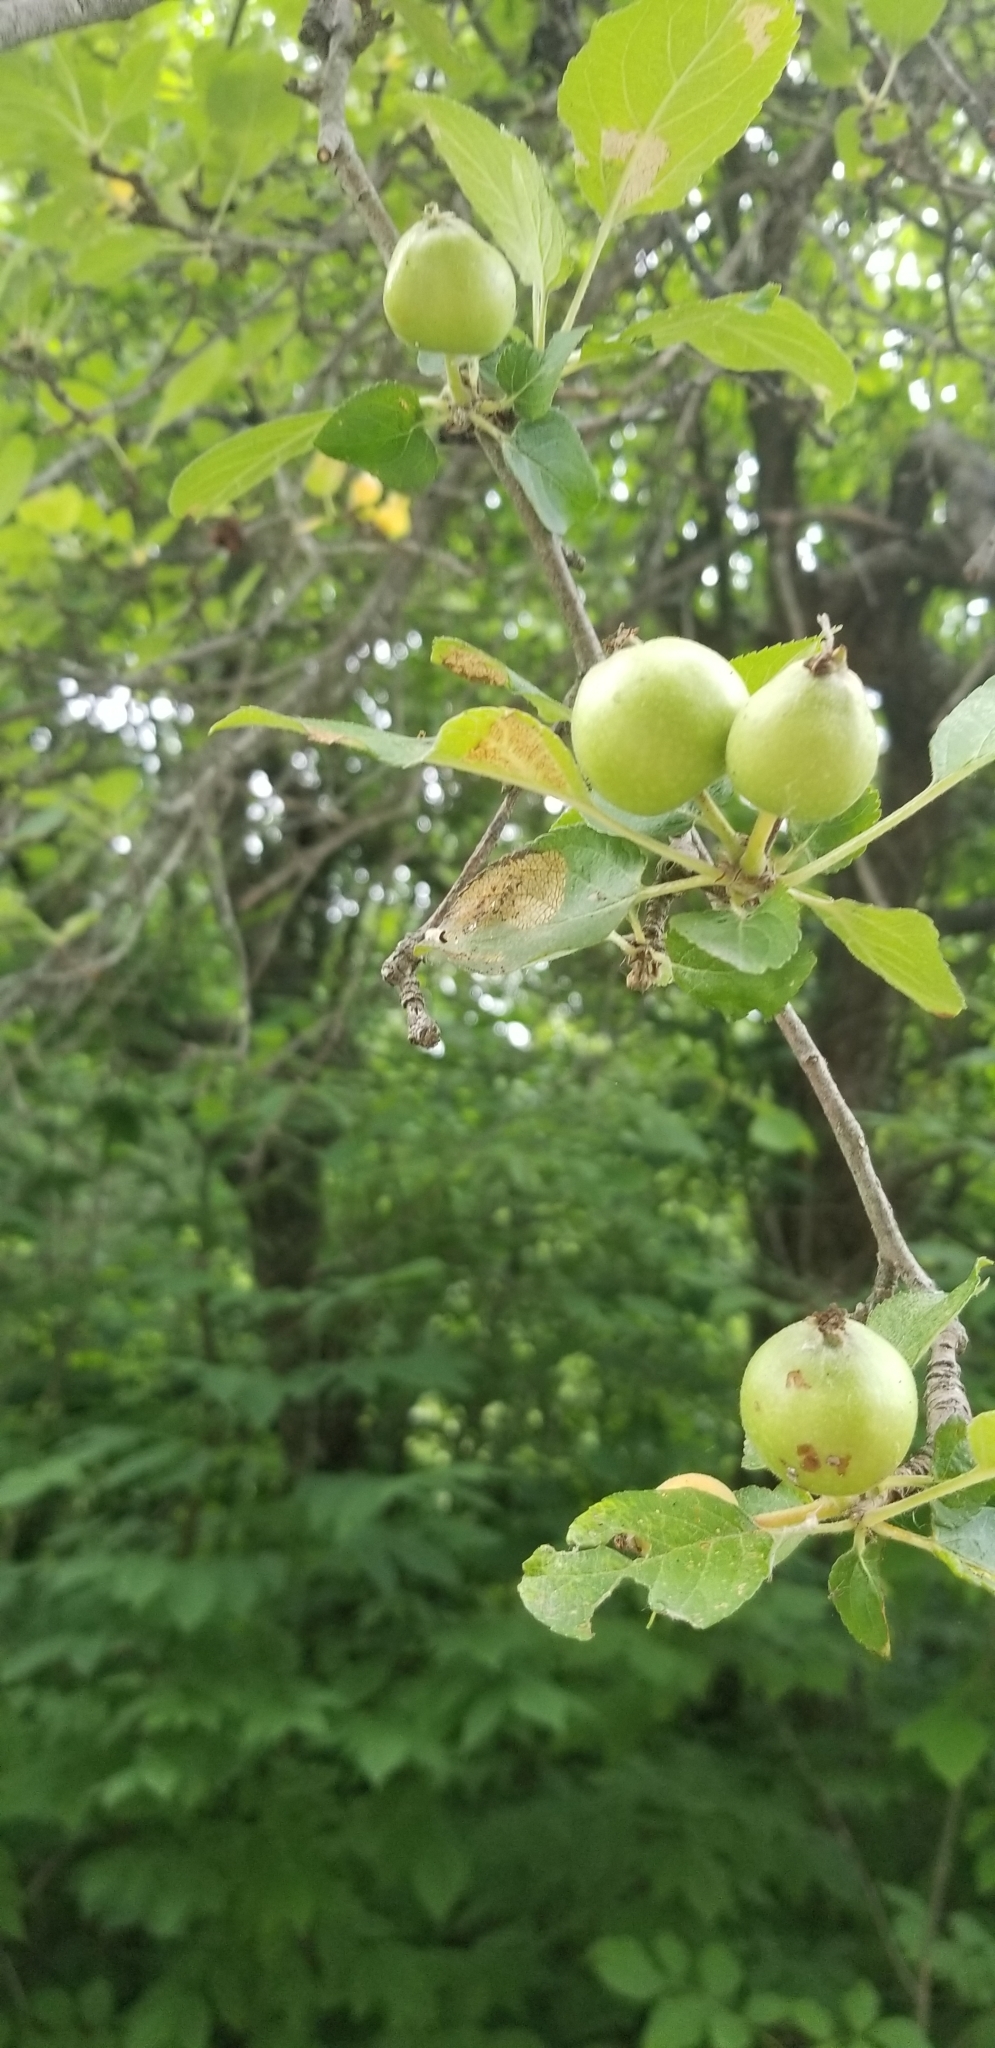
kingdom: Plantae
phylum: Tracheophyta
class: Magnoliopsida
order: Rosales
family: Rosaceae
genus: Malus
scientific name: Malus domestica
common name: Apple
